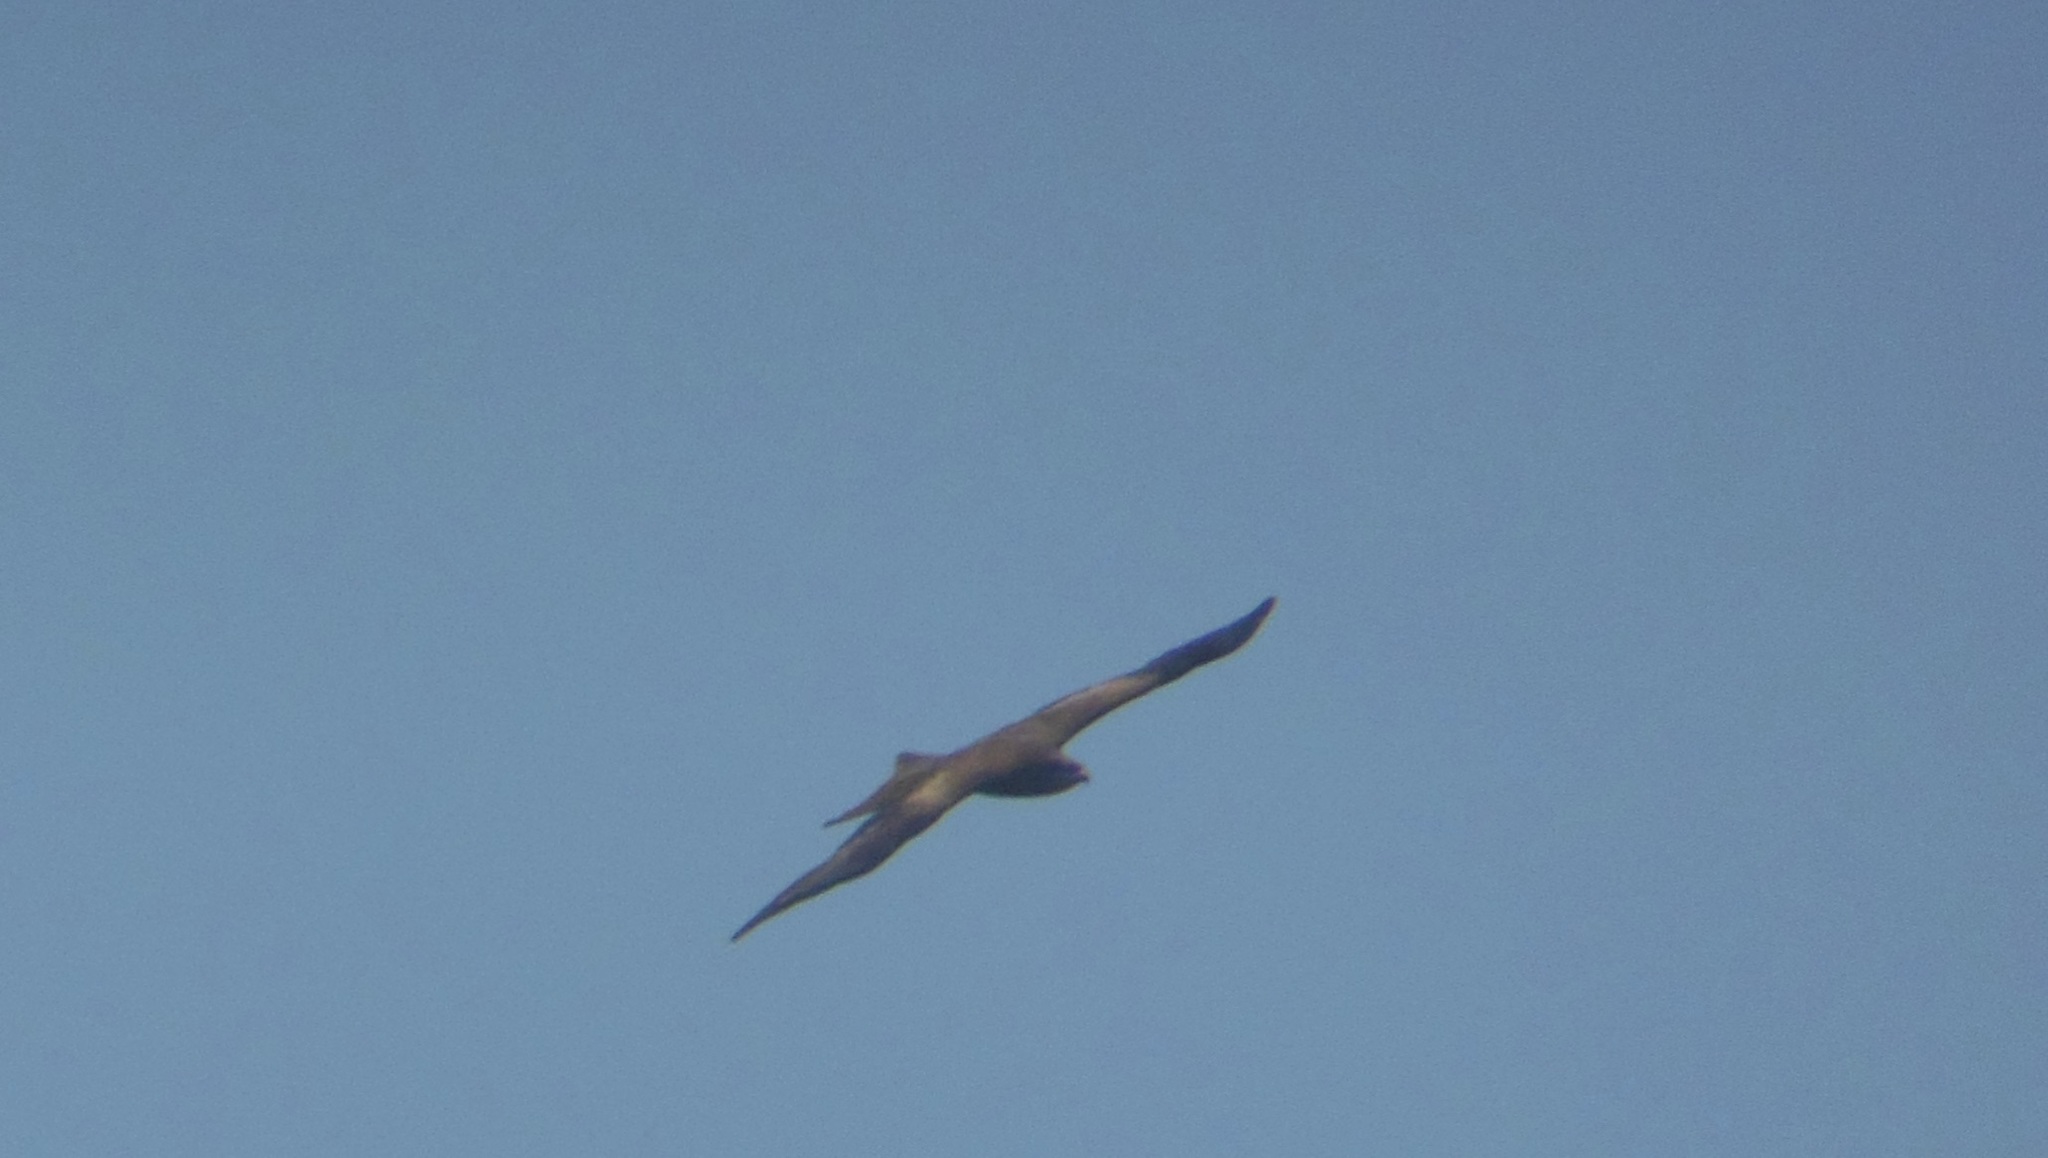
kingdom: Animalia
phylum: Chordata
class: Aves
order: Accipitriformes
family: Accipitridae
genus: Milvus
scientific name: Milvus migrans
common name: Black kite
